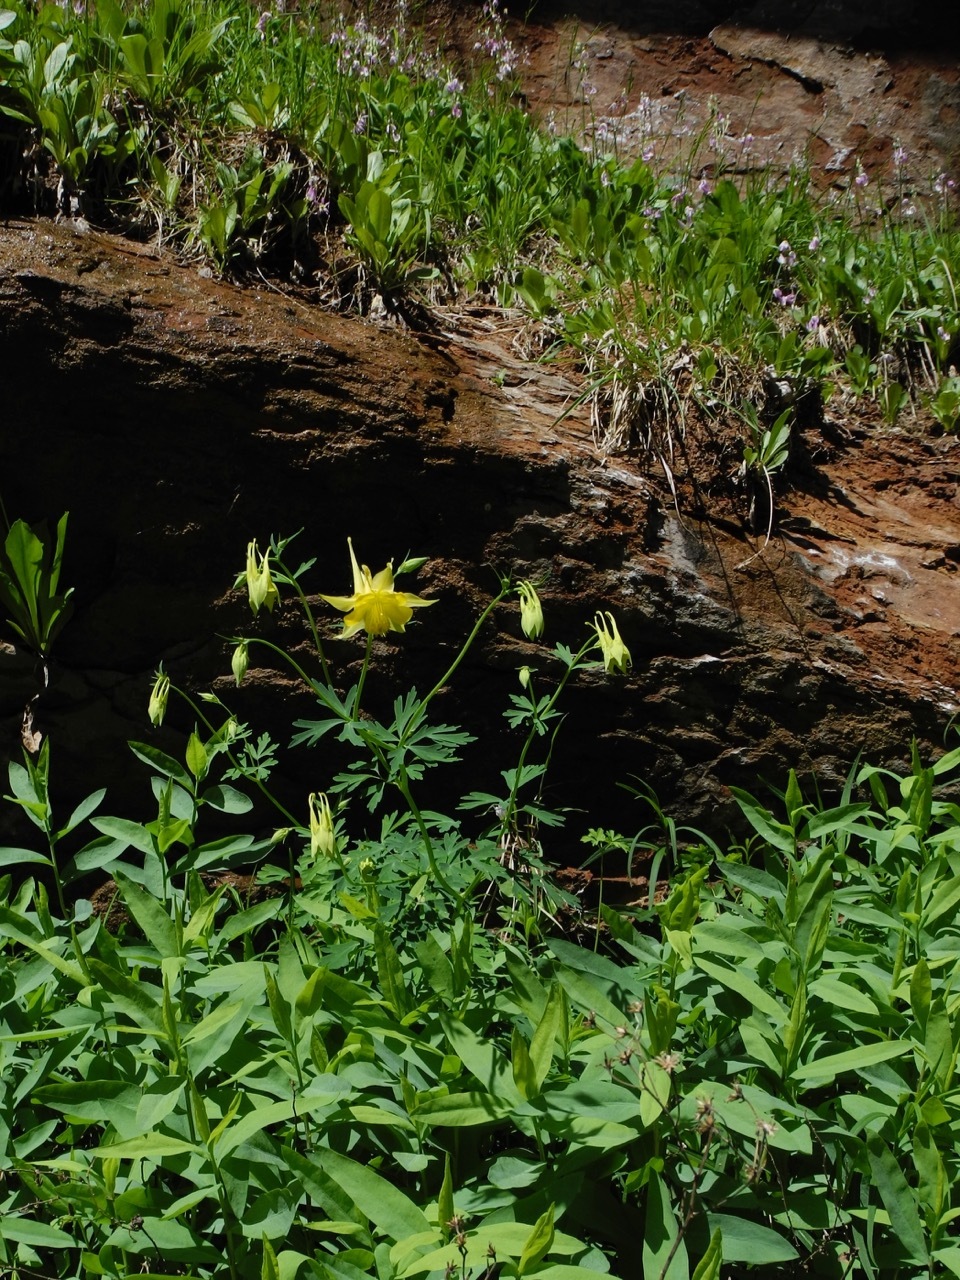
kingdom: Plantae
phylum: Tracheophyta
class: Magnoliopsida
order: Ranunculales
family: Ranunculaceae
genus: Aquilegia
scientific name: Aquilegia chrysantha
